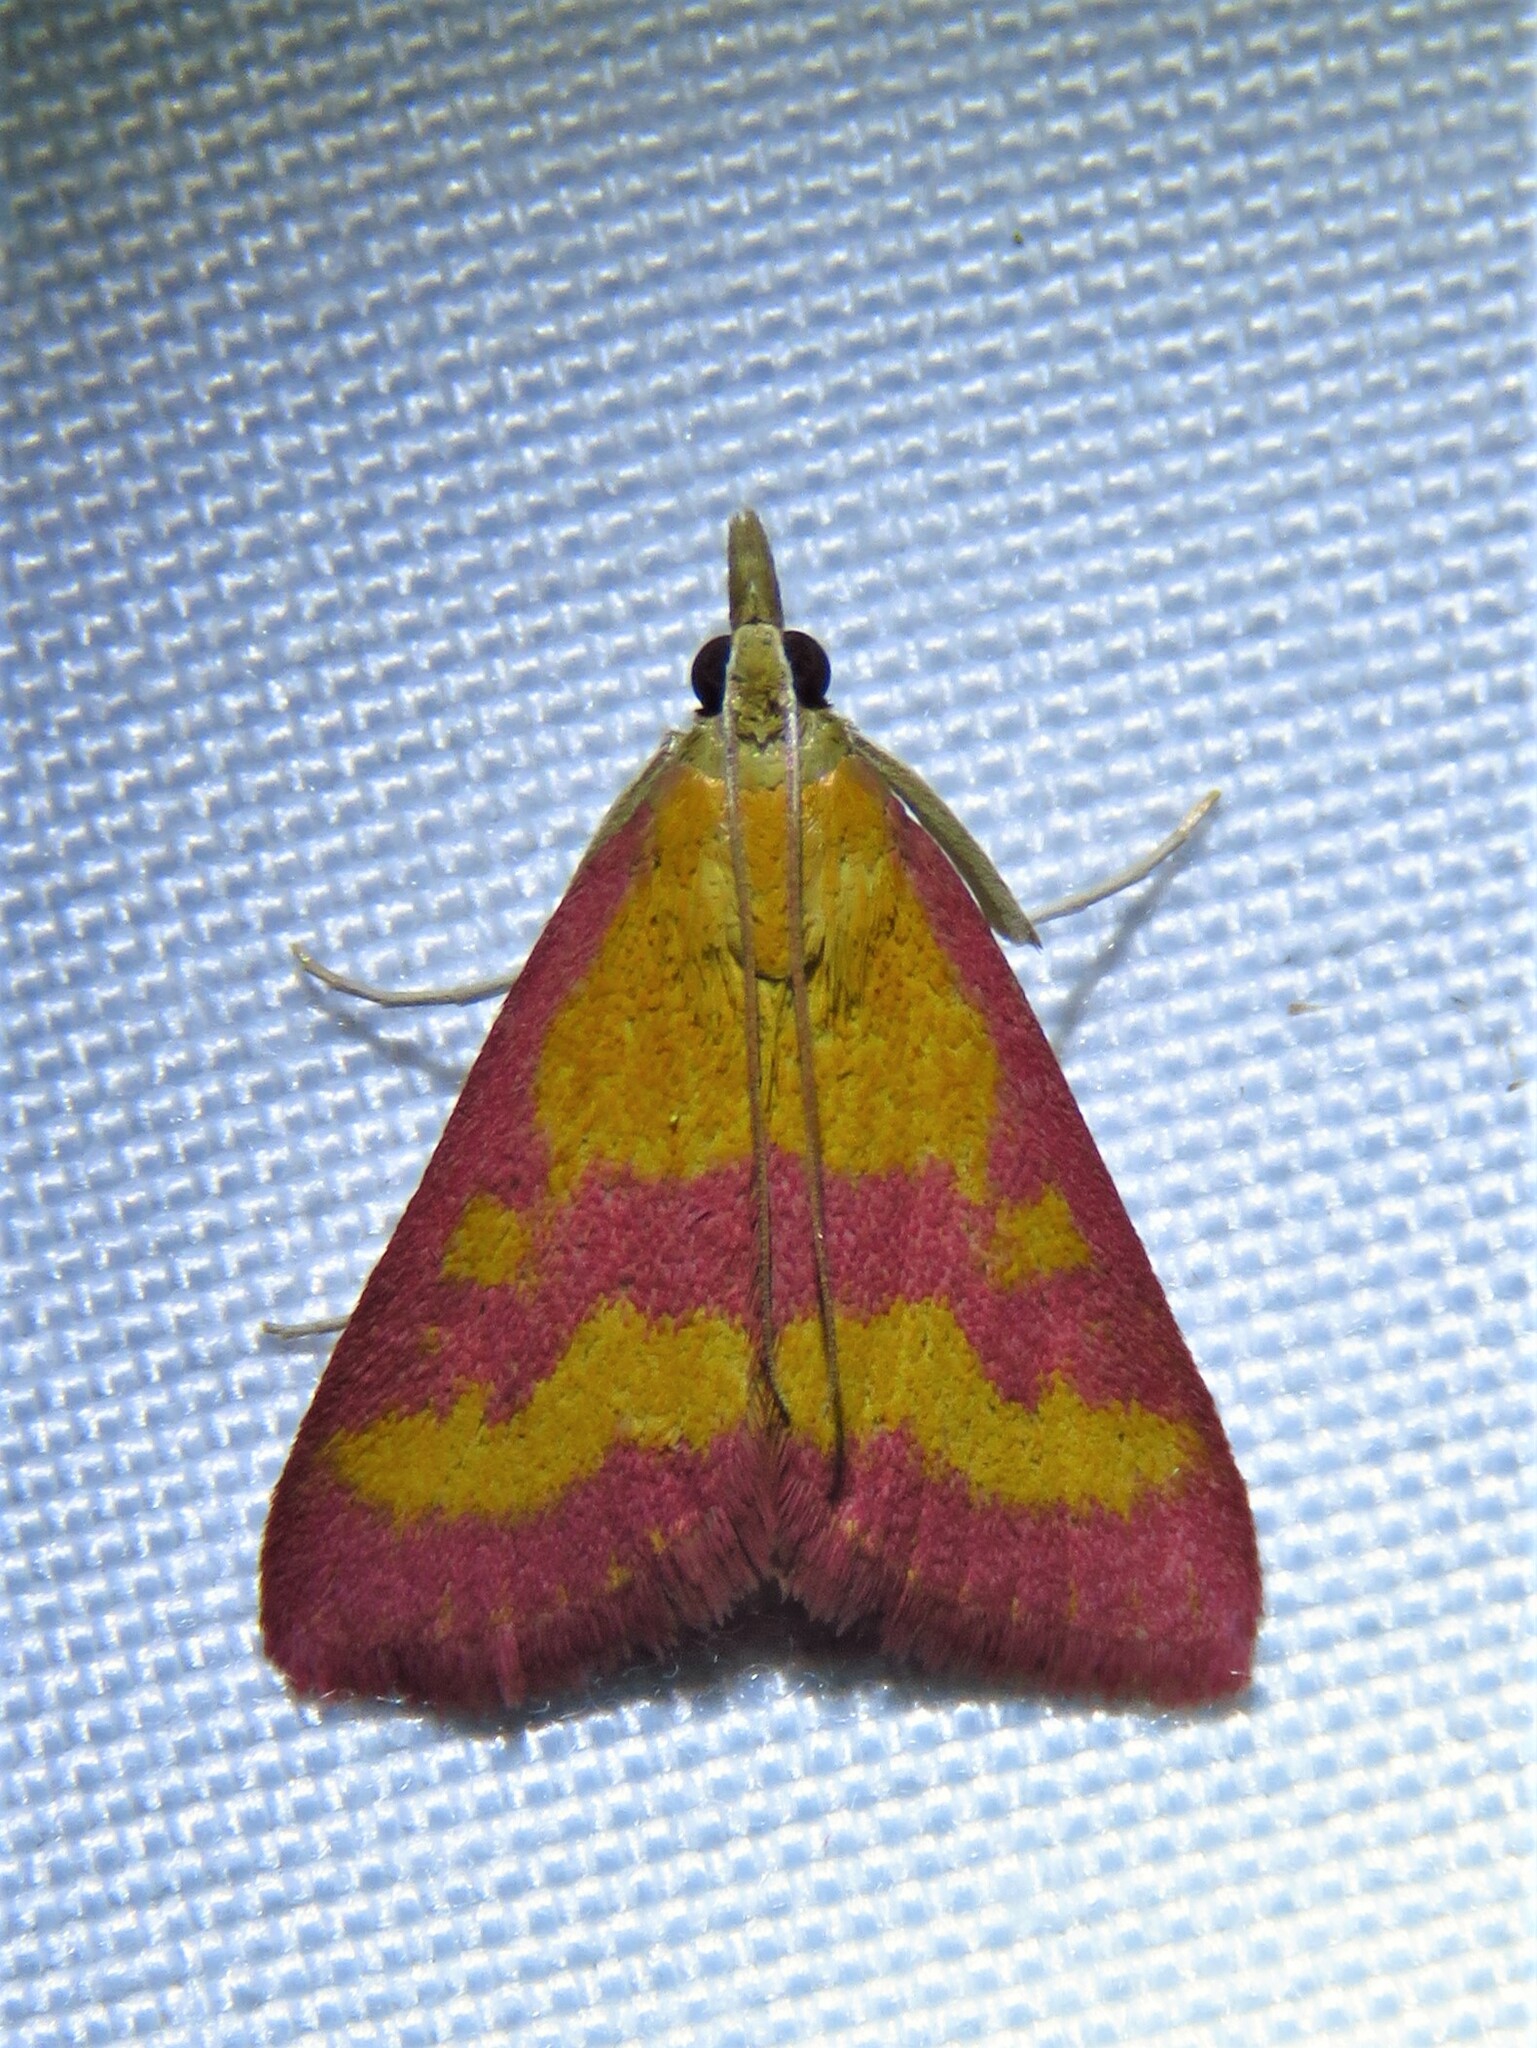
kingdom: Animalia
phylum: Arthropoda
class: Insecta
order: Lepidoptera
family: Crambidae
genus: Pyrausta
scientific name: Pyrausta laticlavia
